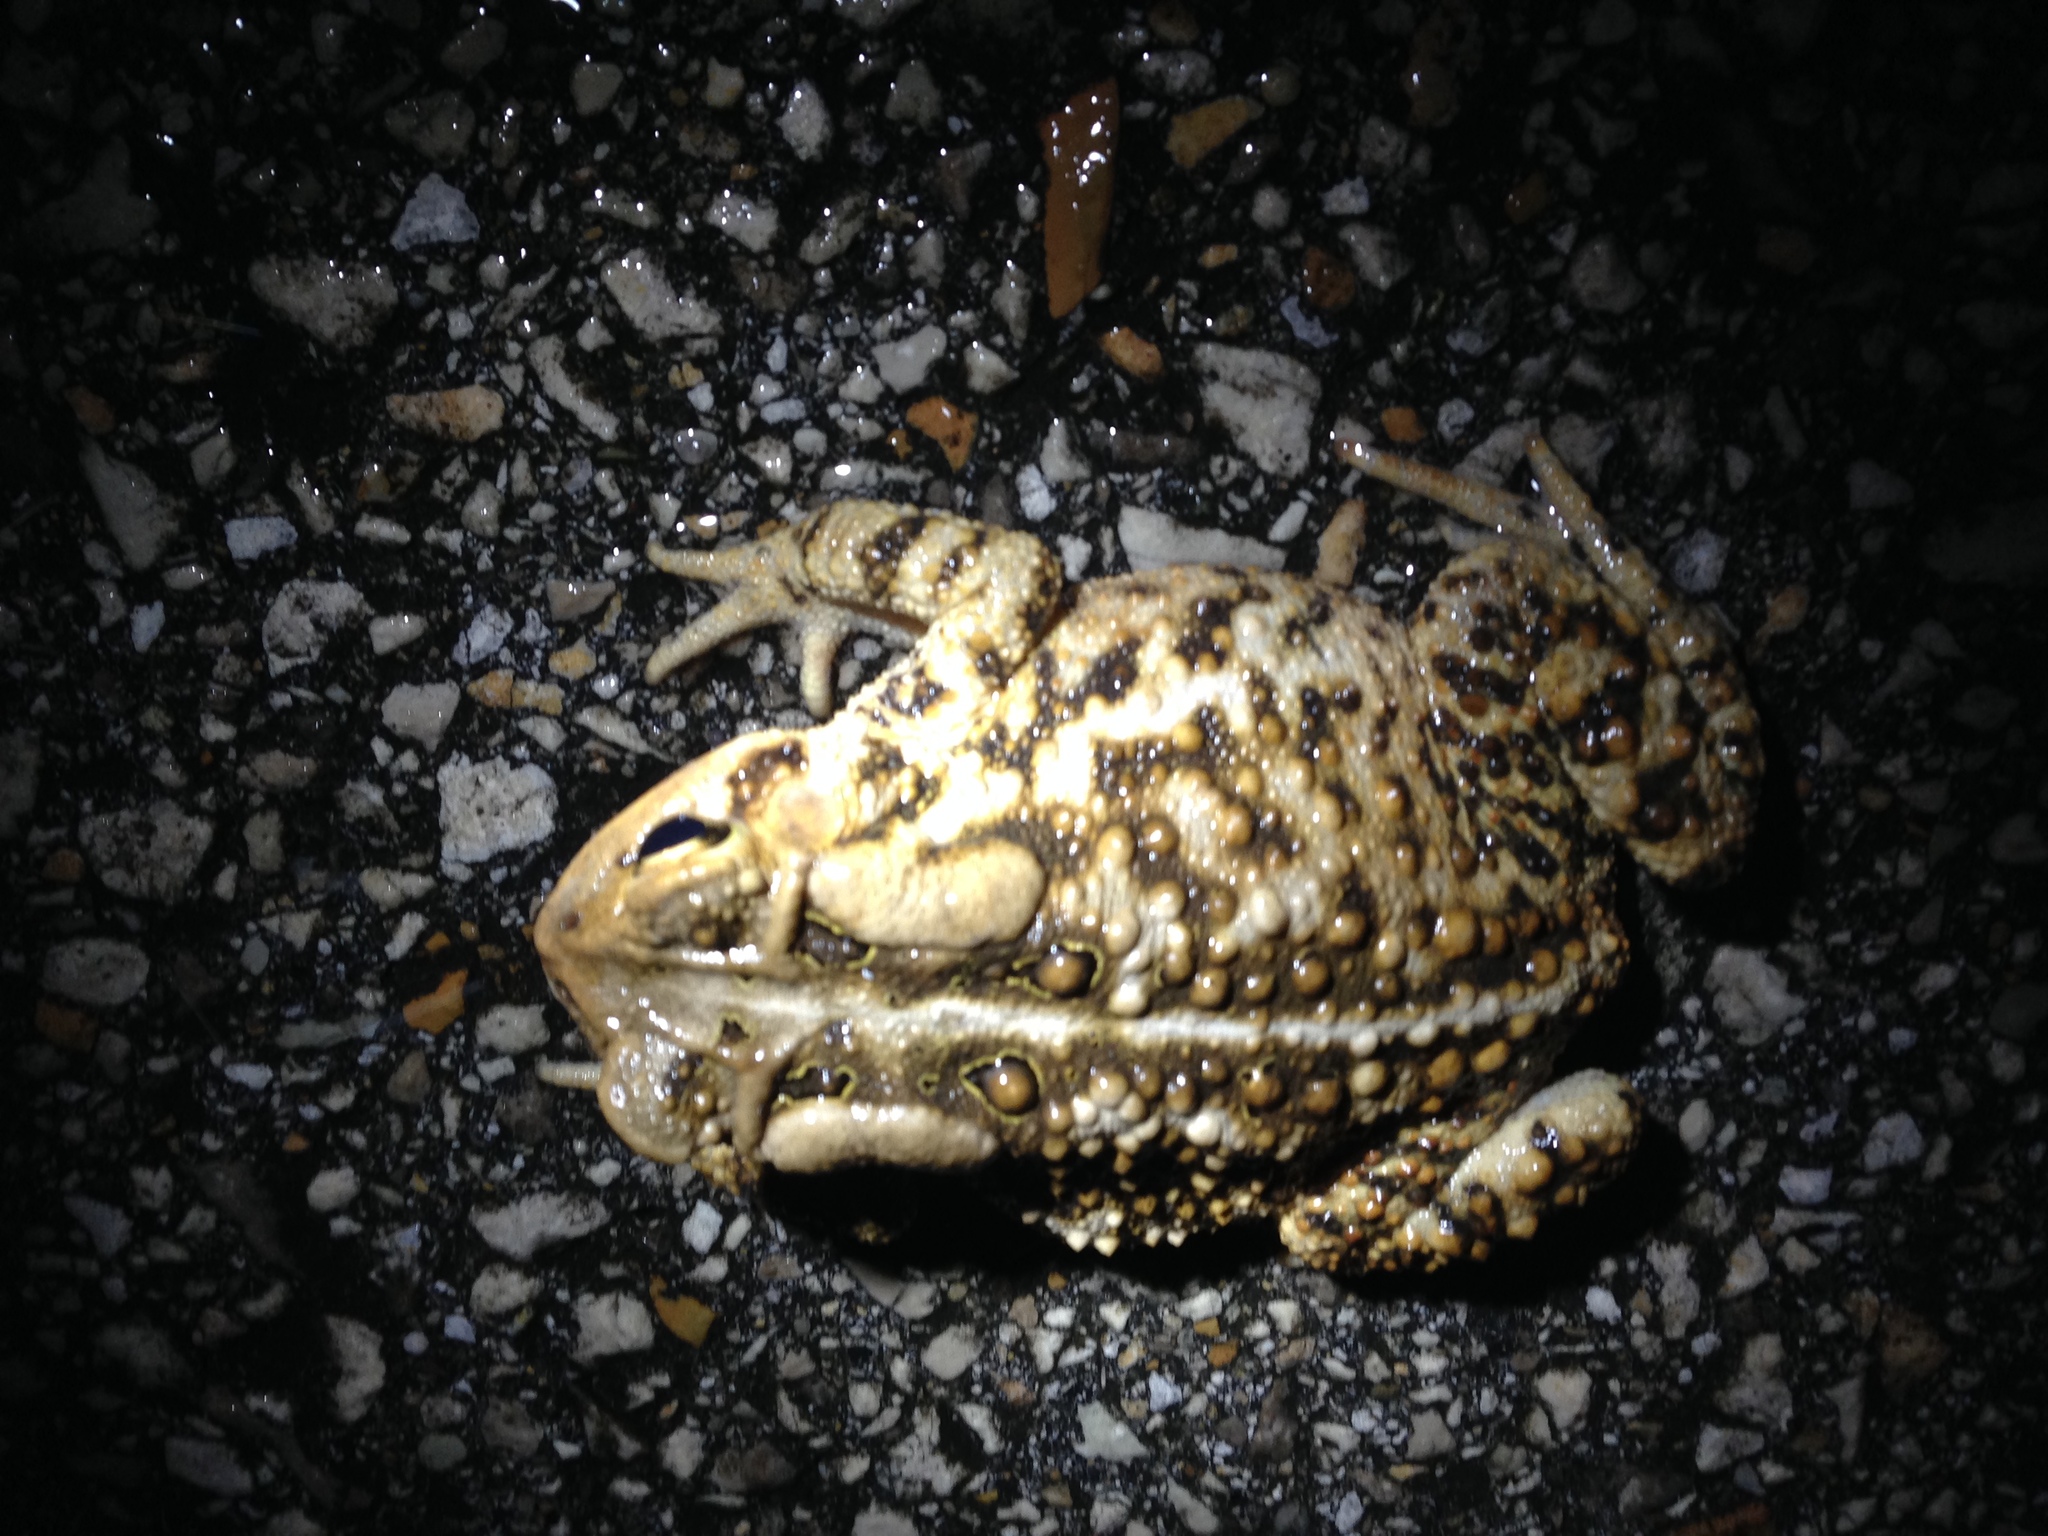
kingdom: Animalia
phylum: Chordata
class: Amphibia
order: Anura
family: Bufonidae
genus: Anaxyrus
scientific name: Anaxyrus americanus
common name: American toad
